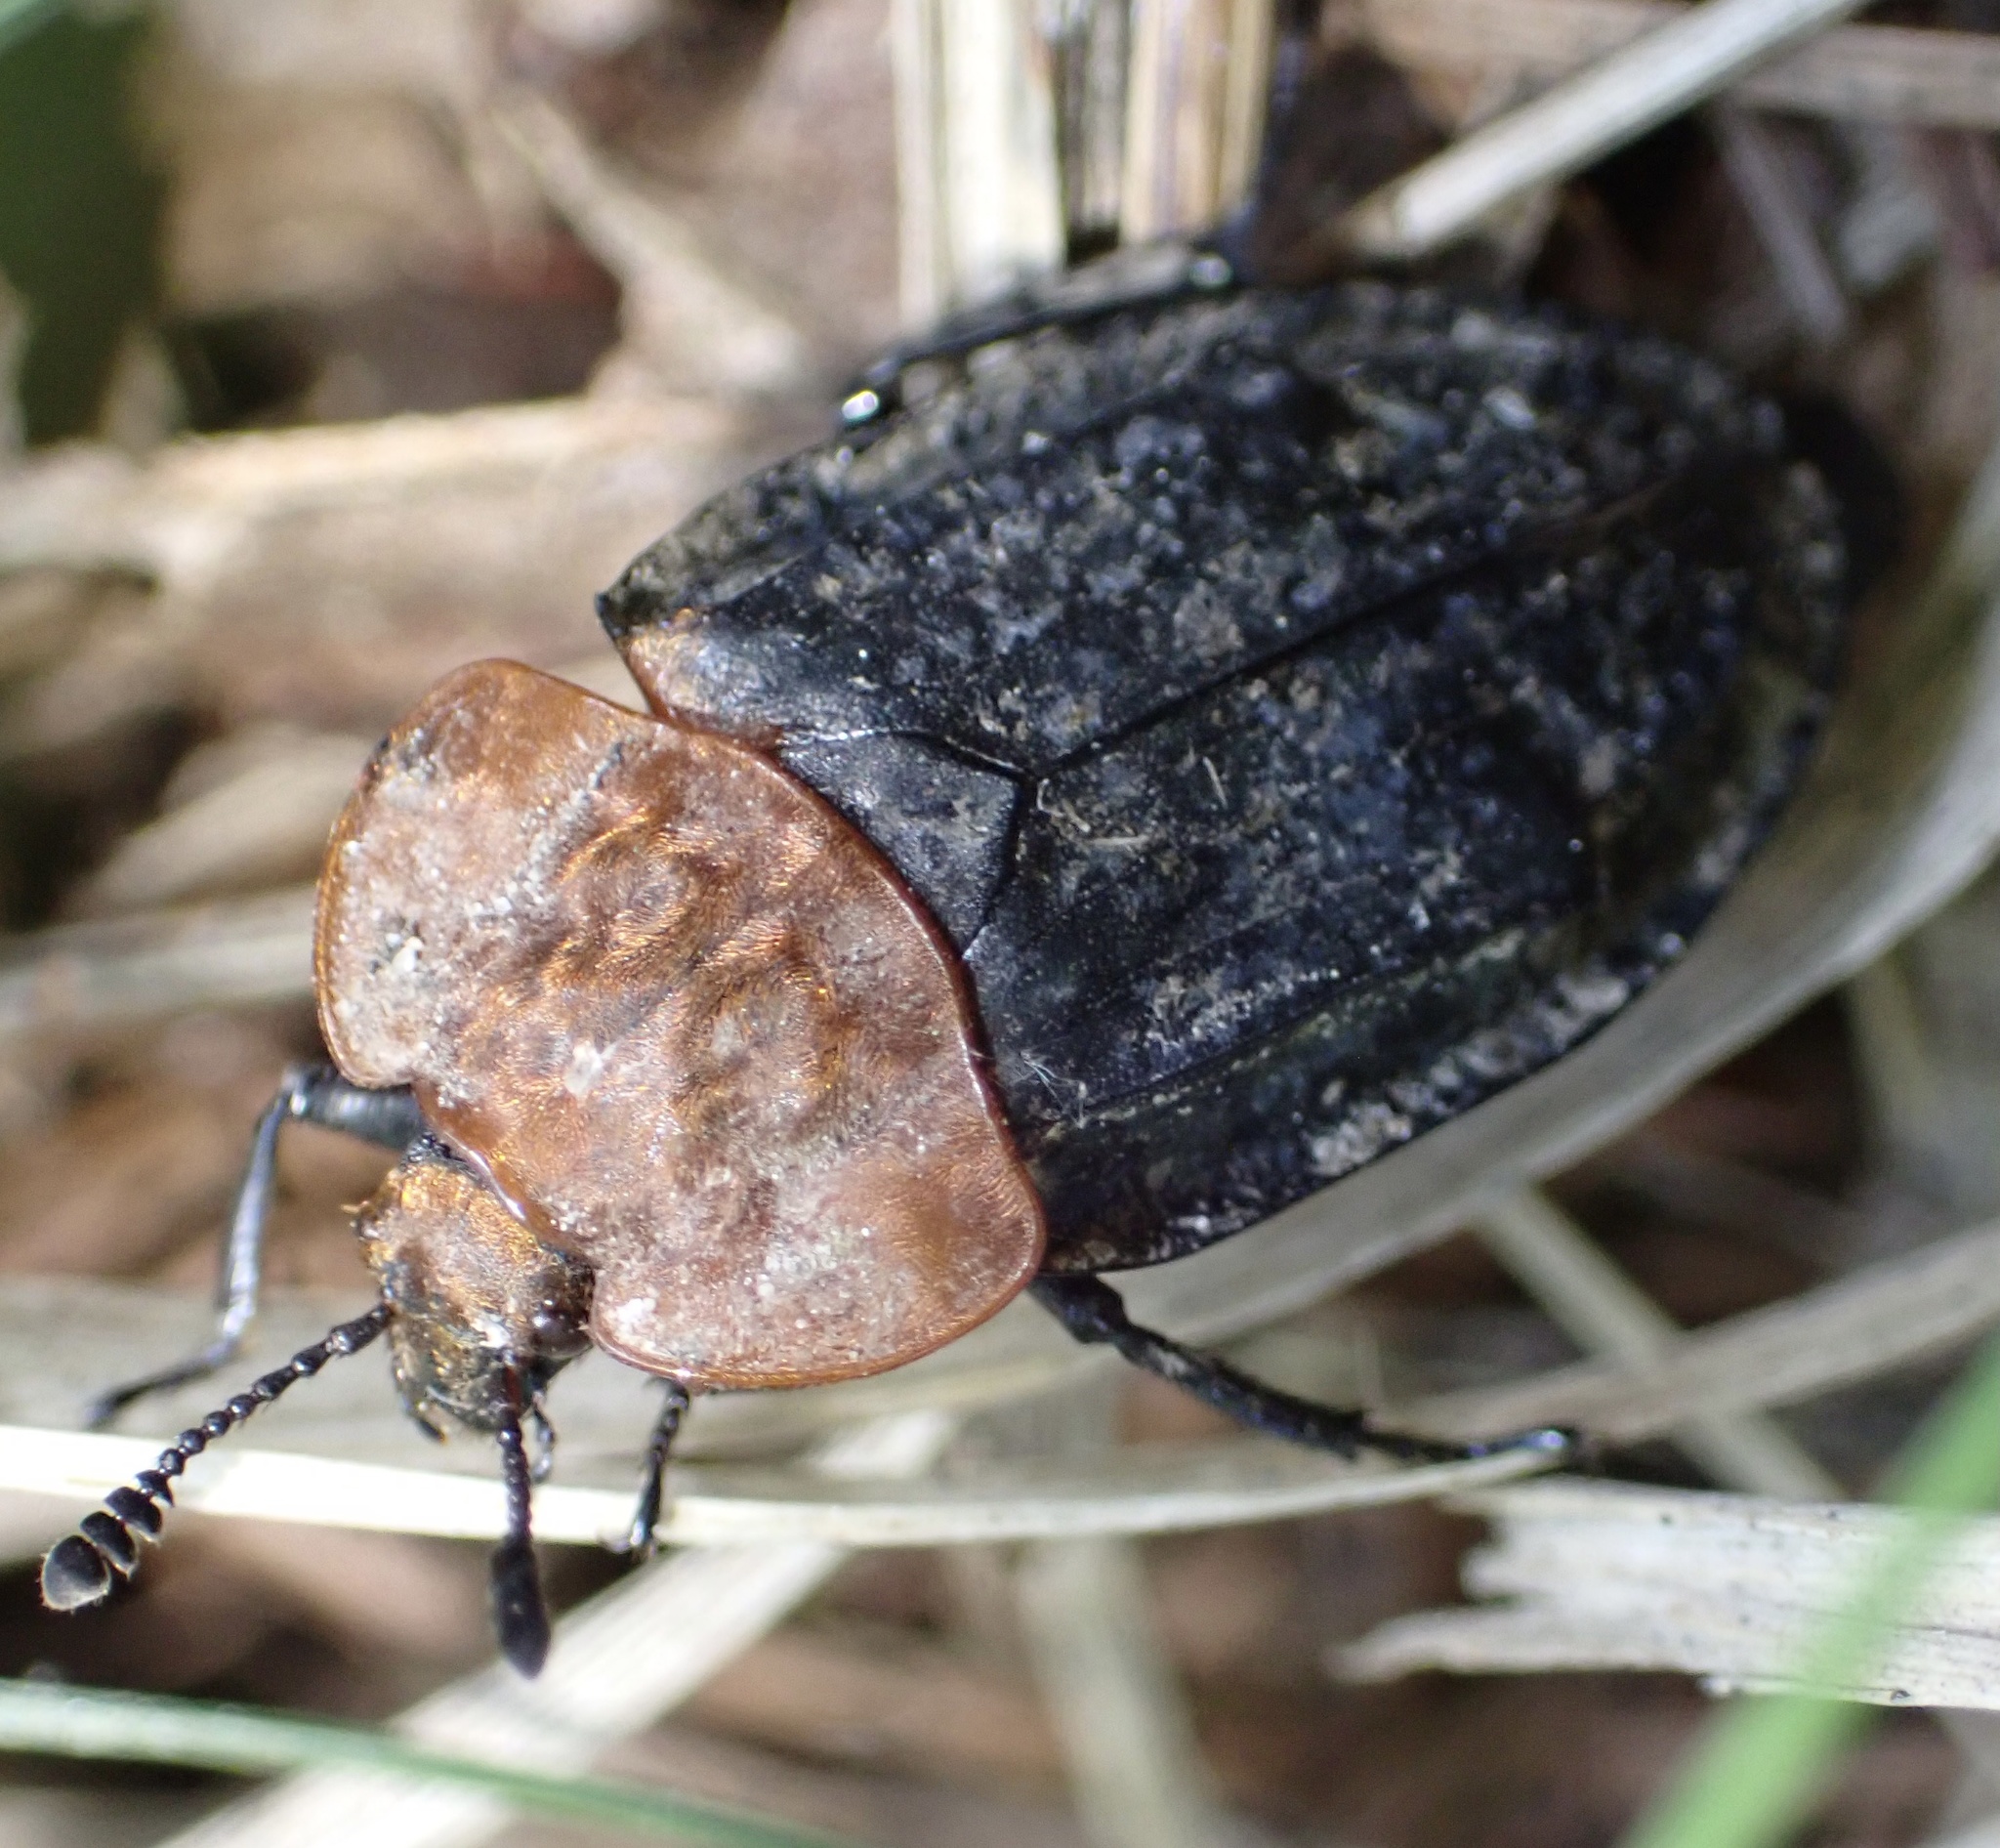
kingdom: Animalia
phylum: Arthropoda
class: Insecta
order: Coleoptera
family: Staphylinidae
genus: Oiceoptoma
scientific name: Oiceoptoma thoracicum
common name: Red-breasted carrion beetle
